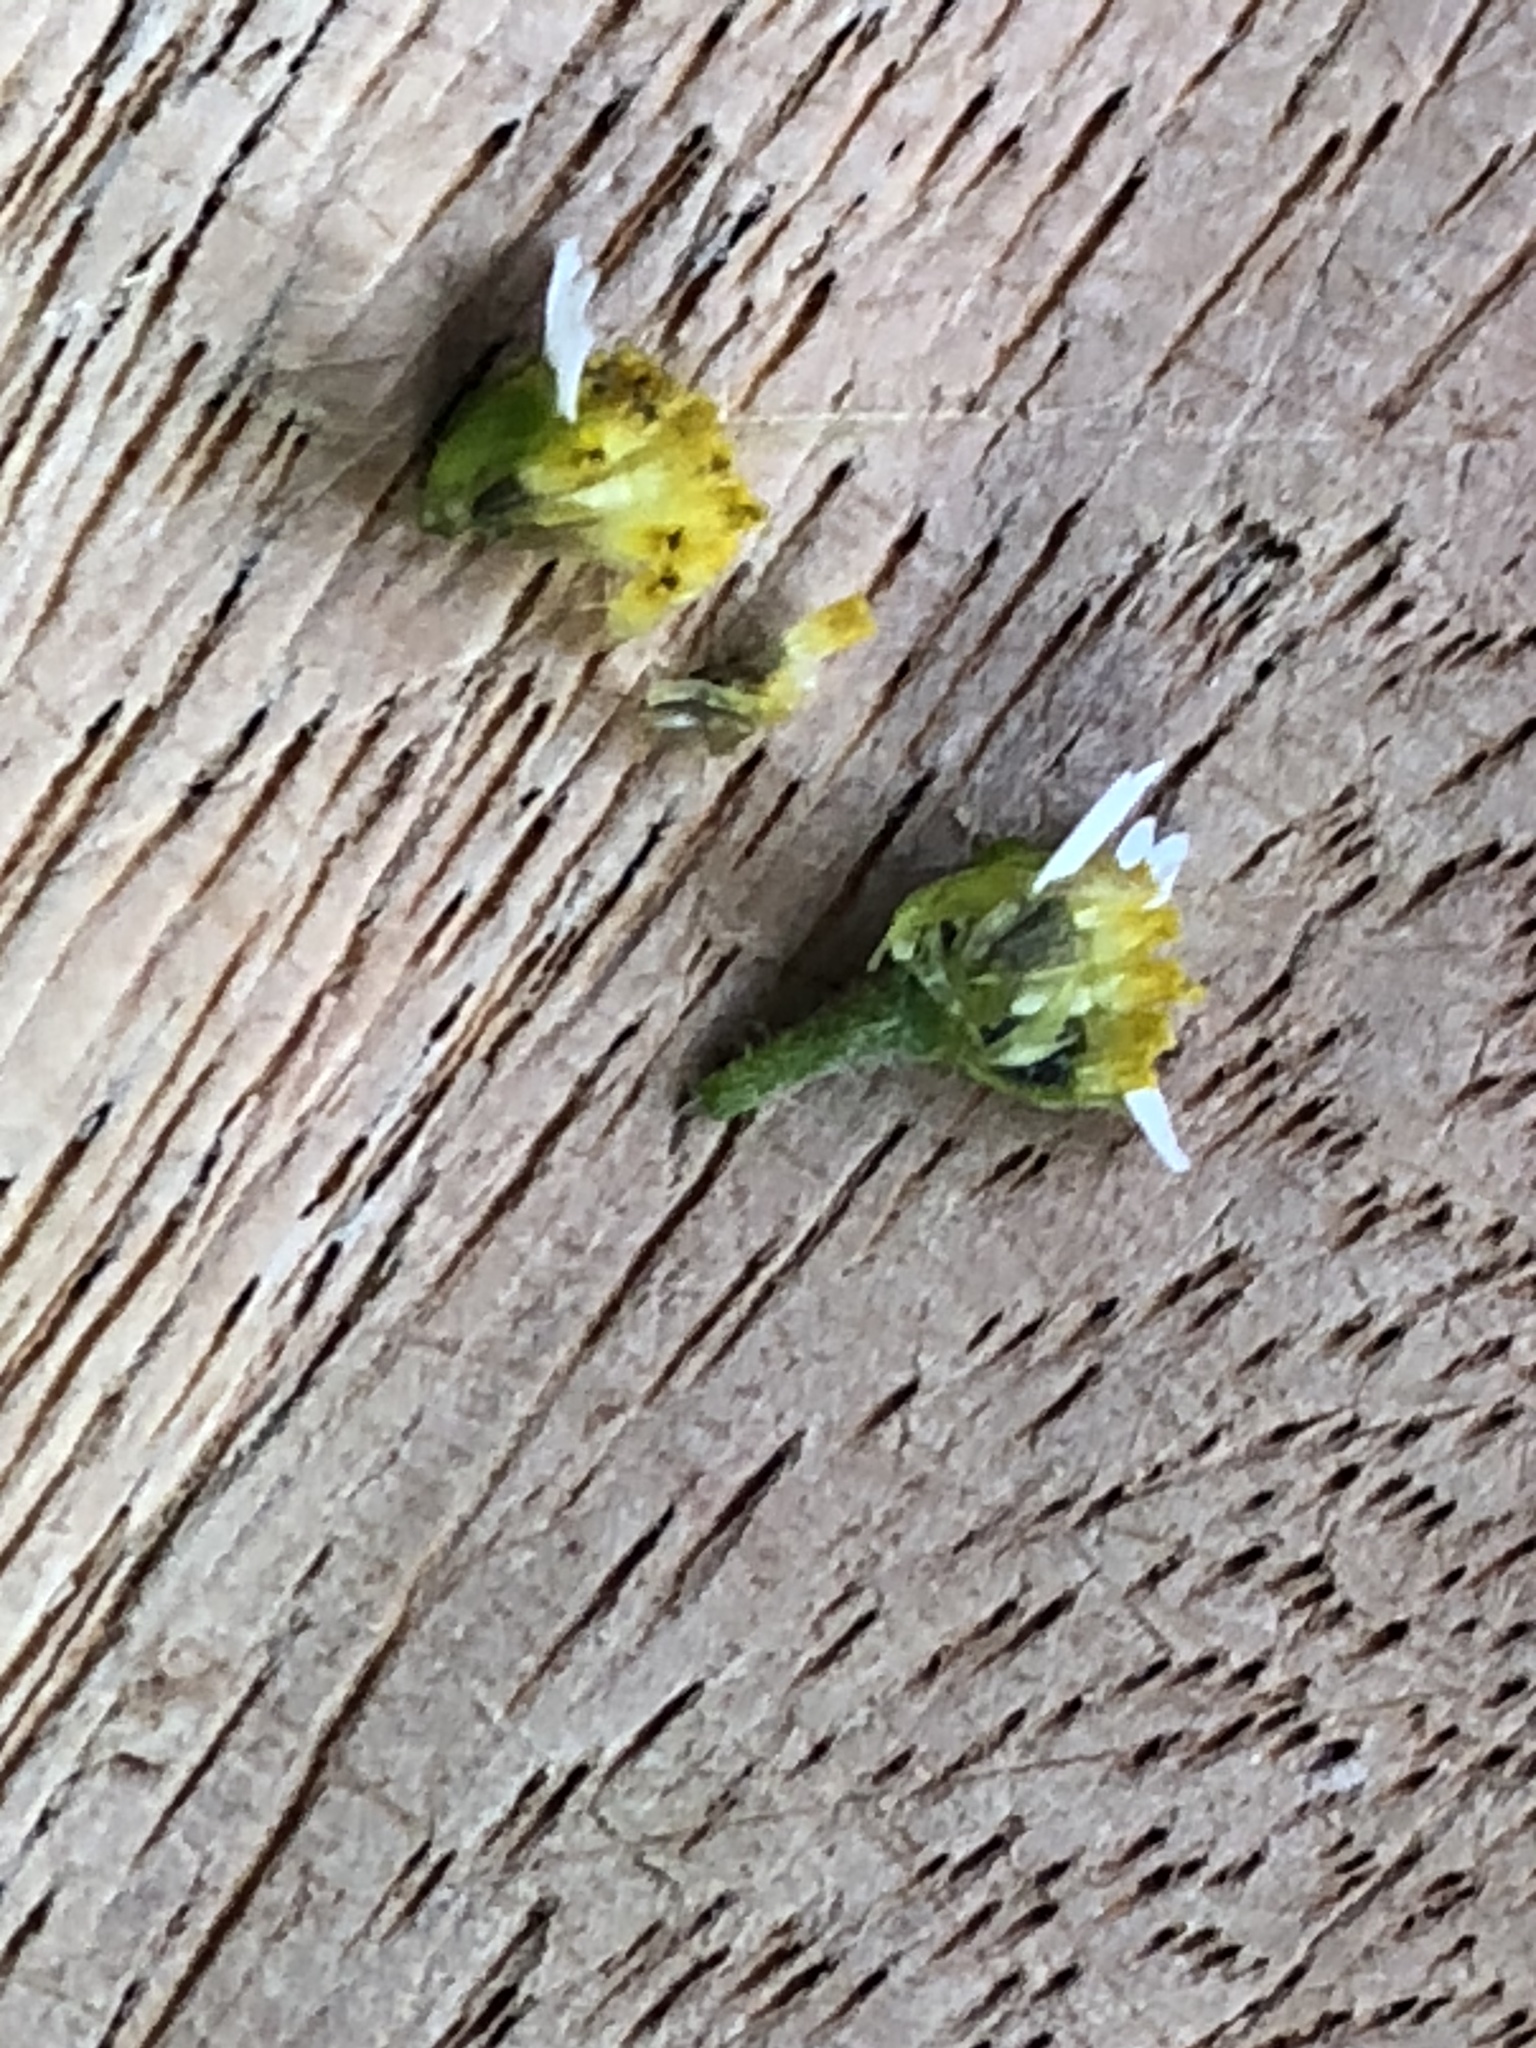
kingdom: Plantae
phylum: Tracheophyta
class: Magnoliopsida
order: Asterales
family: Asteraceae
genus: Galinsoga
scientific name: Galinsoga quadriradiata
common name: Shaggy soldier
